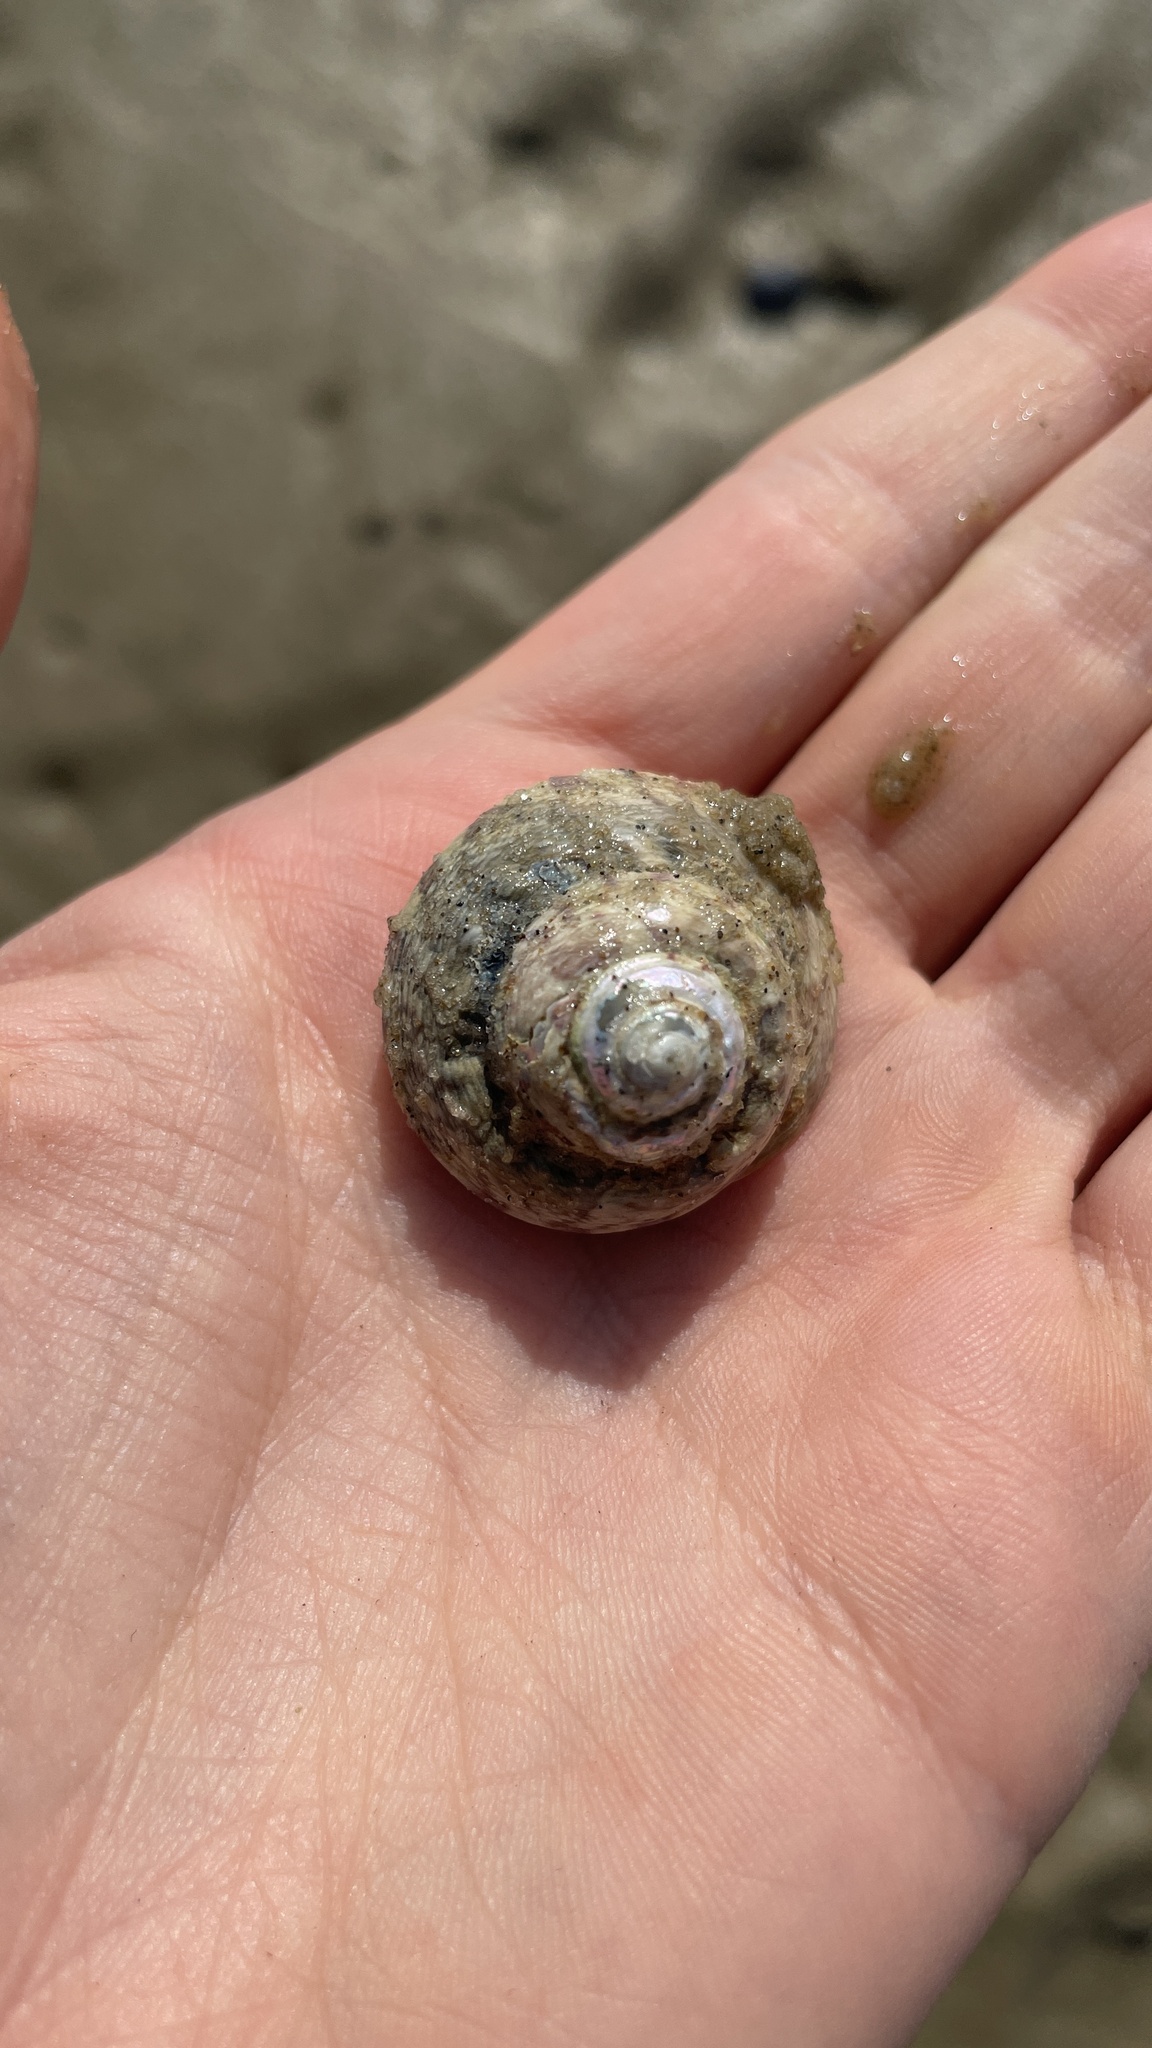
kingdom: Animalia
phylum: Mollusca
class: Gastropoda
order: Trochida
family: Trochidae
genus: Gibbula
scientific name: Gibbula magus
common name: Turban top shell
